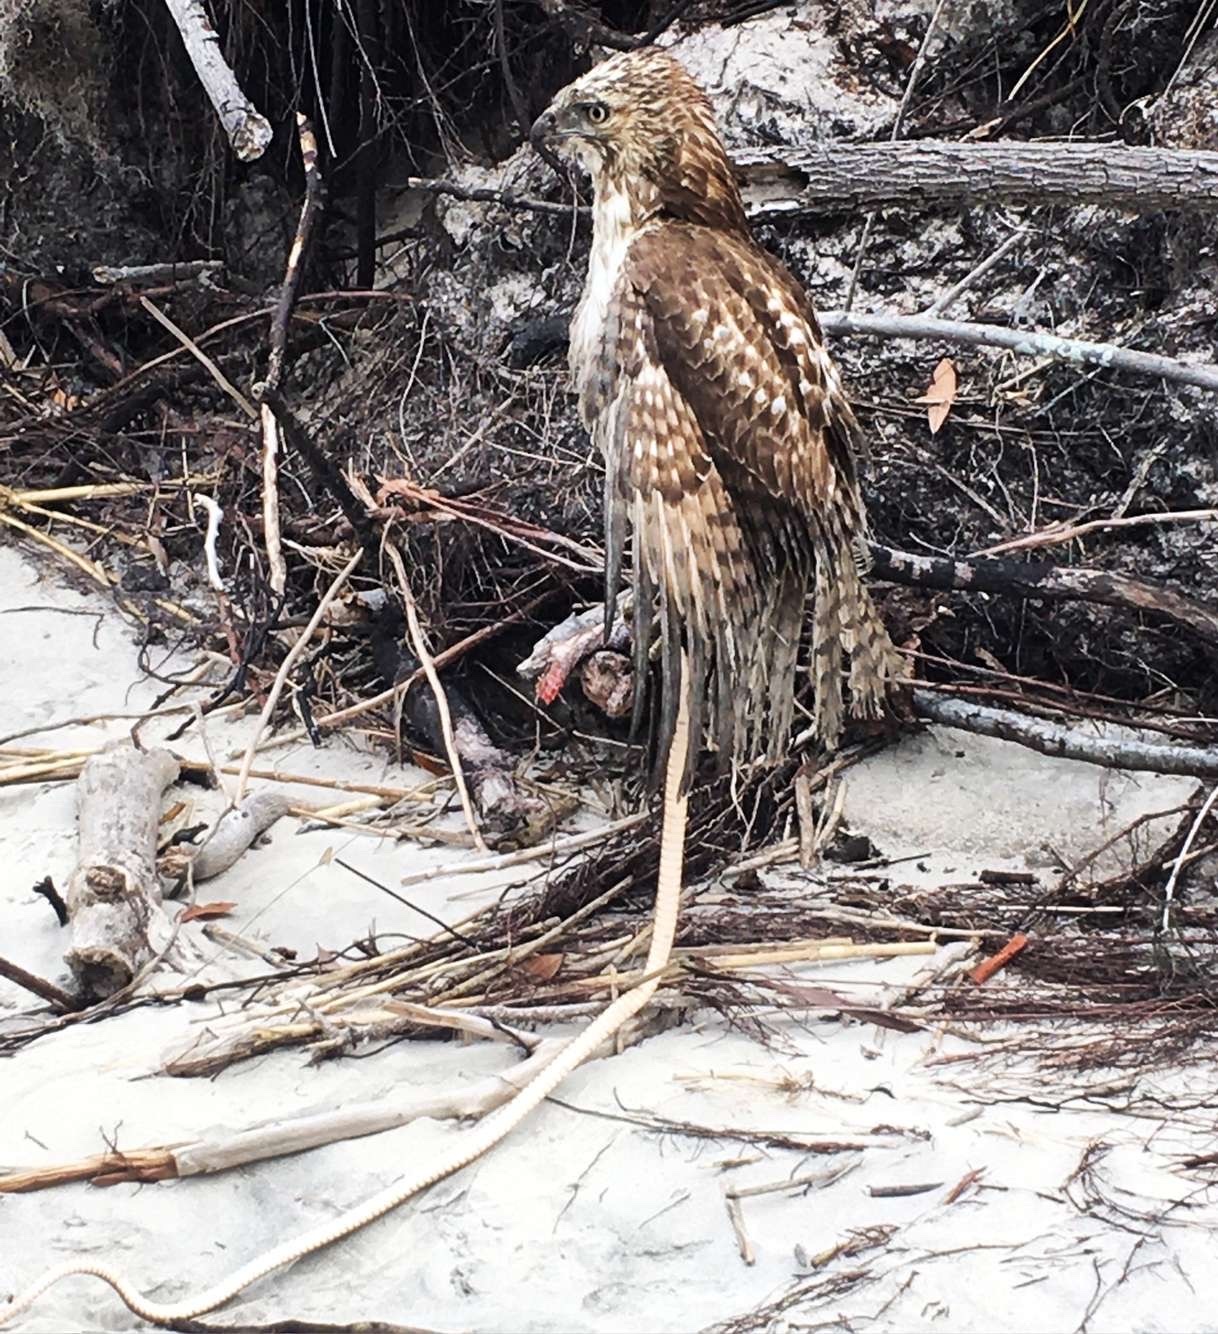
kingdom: Animalia
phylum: Chordata
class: Aves
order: Accipitriformes
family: Accipitridae
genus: Buteo
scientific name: Buteo lineatus
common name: Red-shouldered hawk
